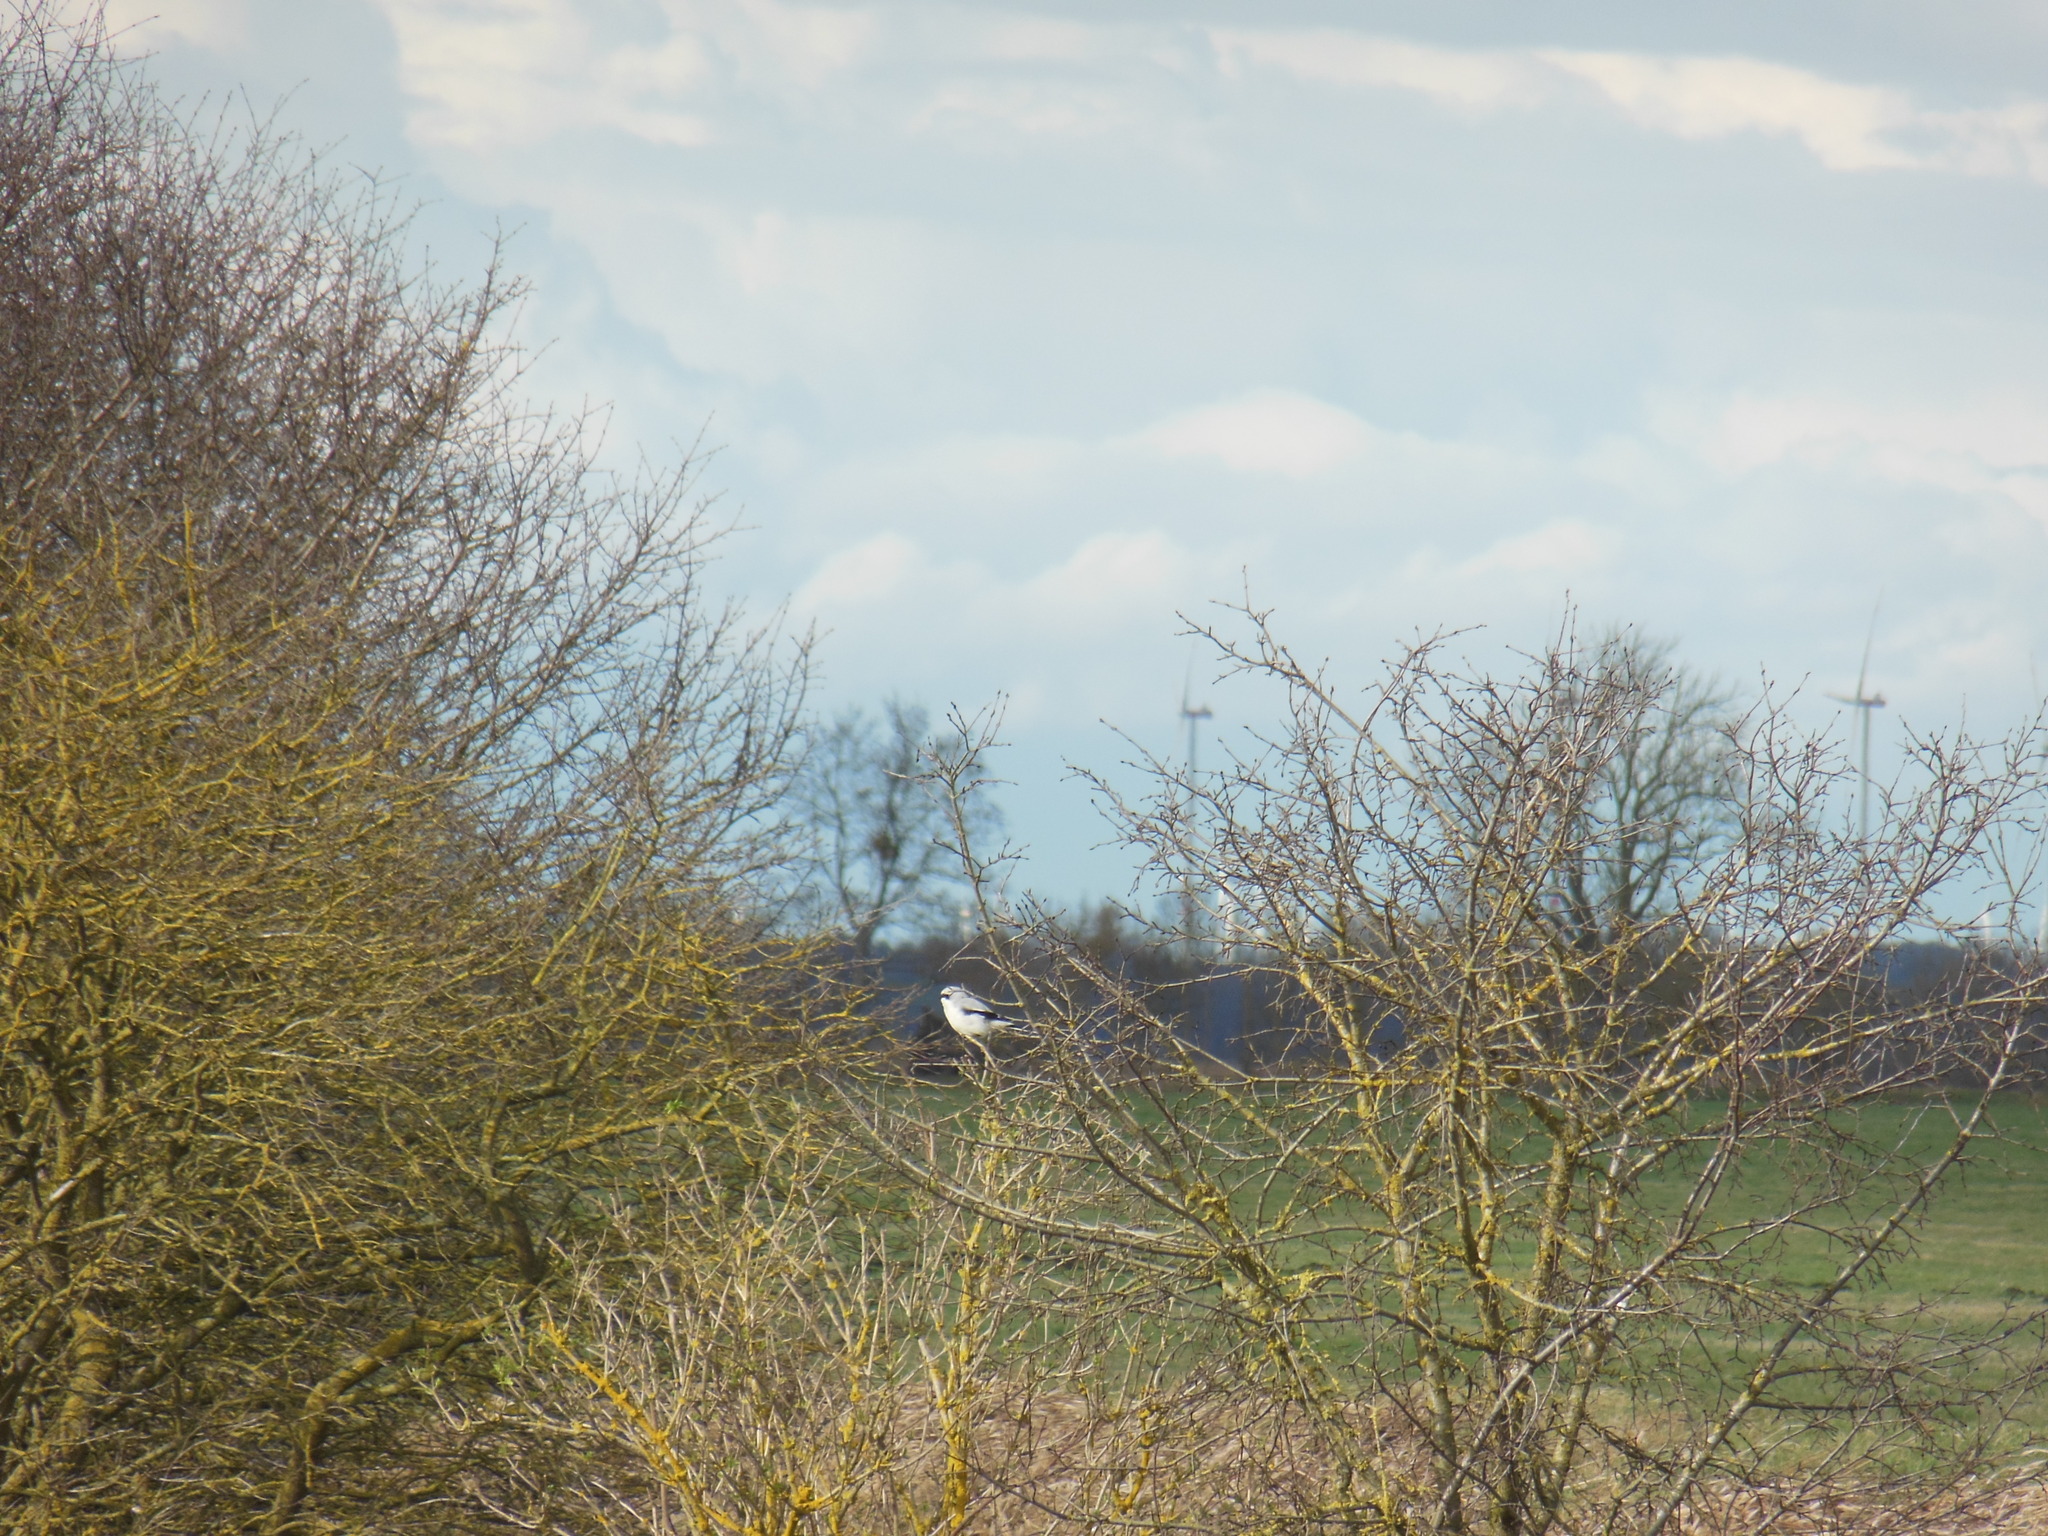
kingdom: Animalia
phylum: Chordata
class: Aves
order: Passeriformes
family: Laniidae
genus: Lanius
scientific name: Lanius excubitor
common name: Great grey shrike
